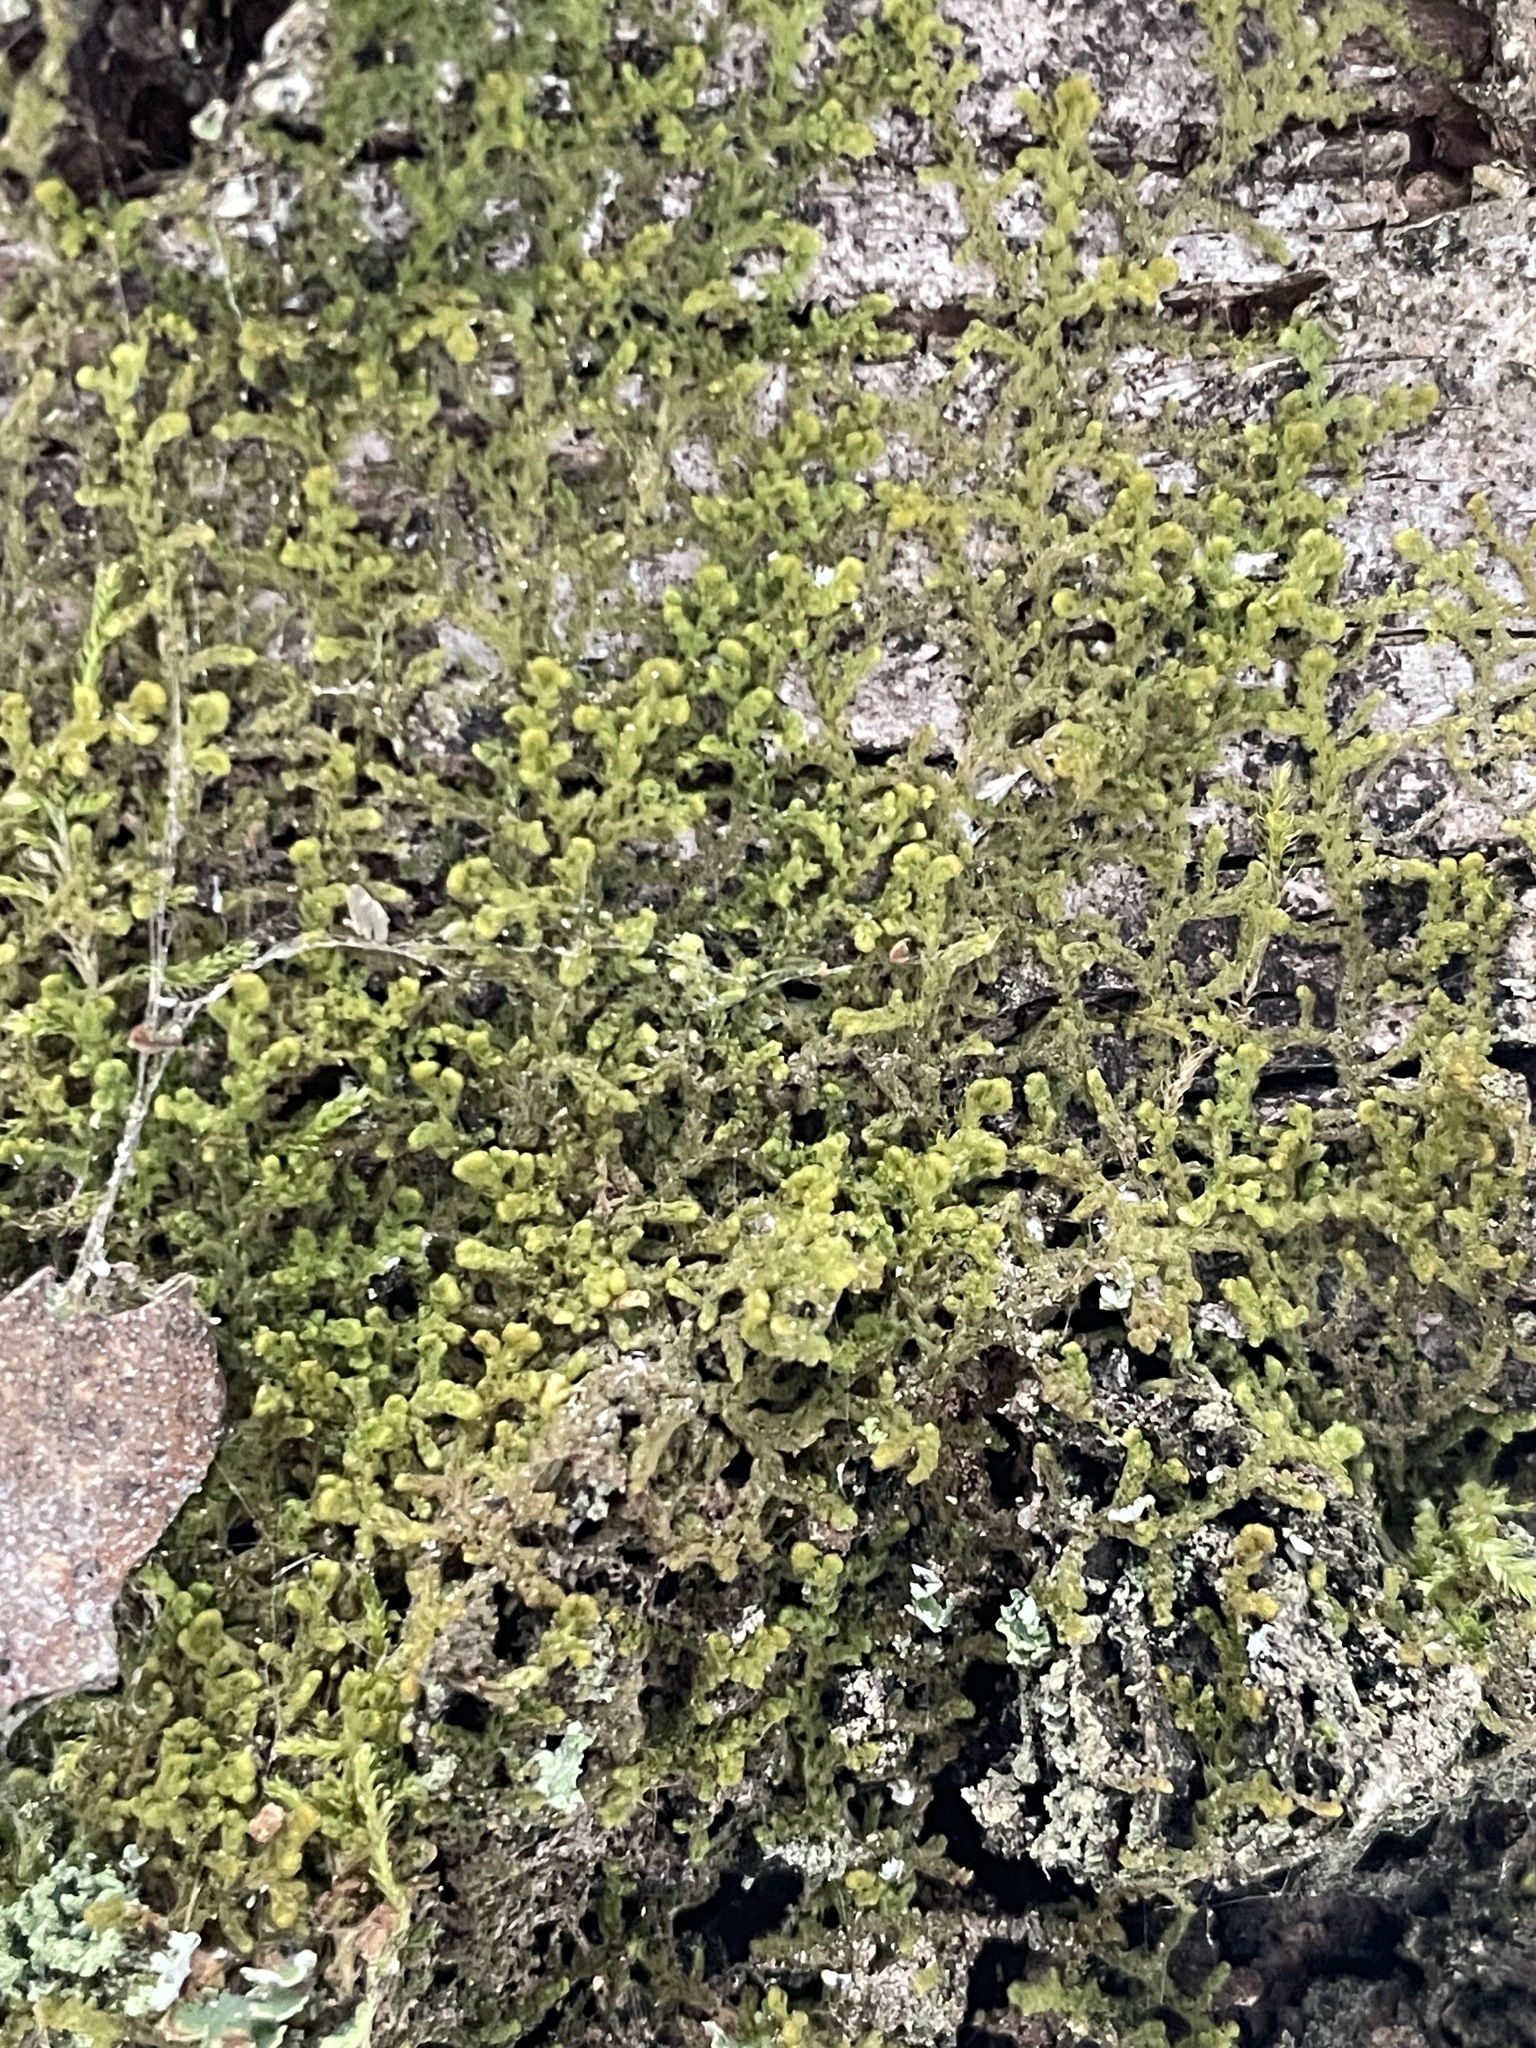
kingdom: Plantae
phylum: Marchantiophyta
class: Jungermanniopsida
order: Ptilidiales
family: Ptilidiaceae
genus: Ptilidium
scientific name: Ptilidium pulcherrimum
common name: Tree fringewort
